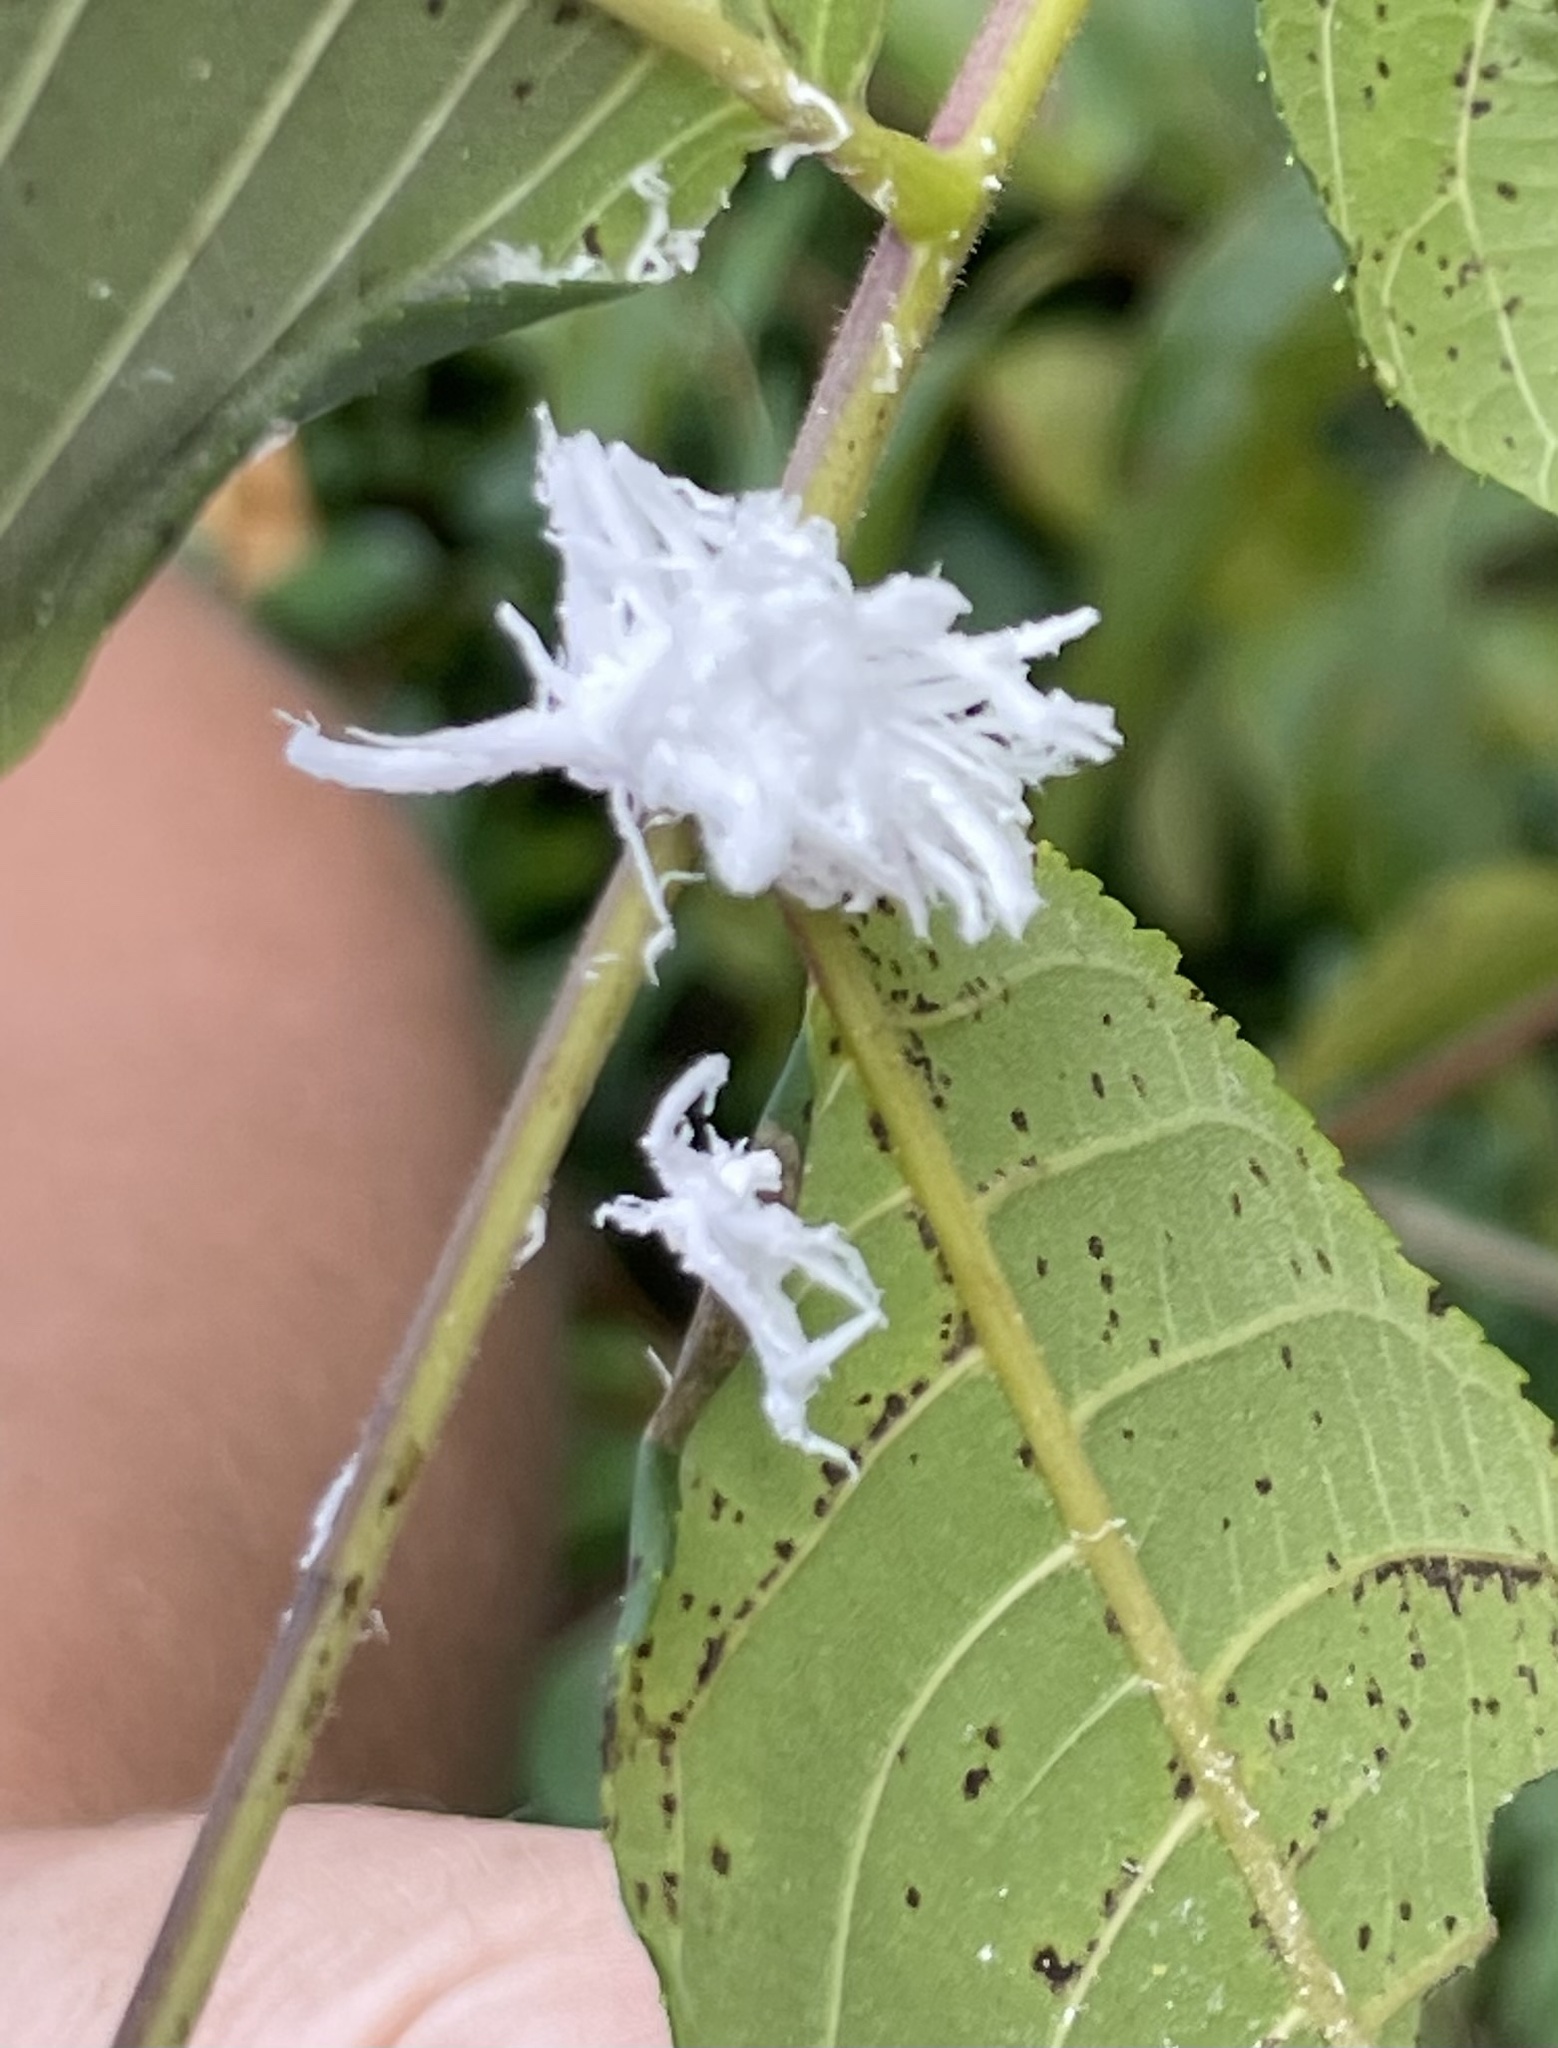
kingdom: Animalia
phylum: Arthropoda
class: Insecta
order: Hymenoptera
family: Tenthredinidae
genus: Eriocampa
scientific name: Eriocampa juglandis
